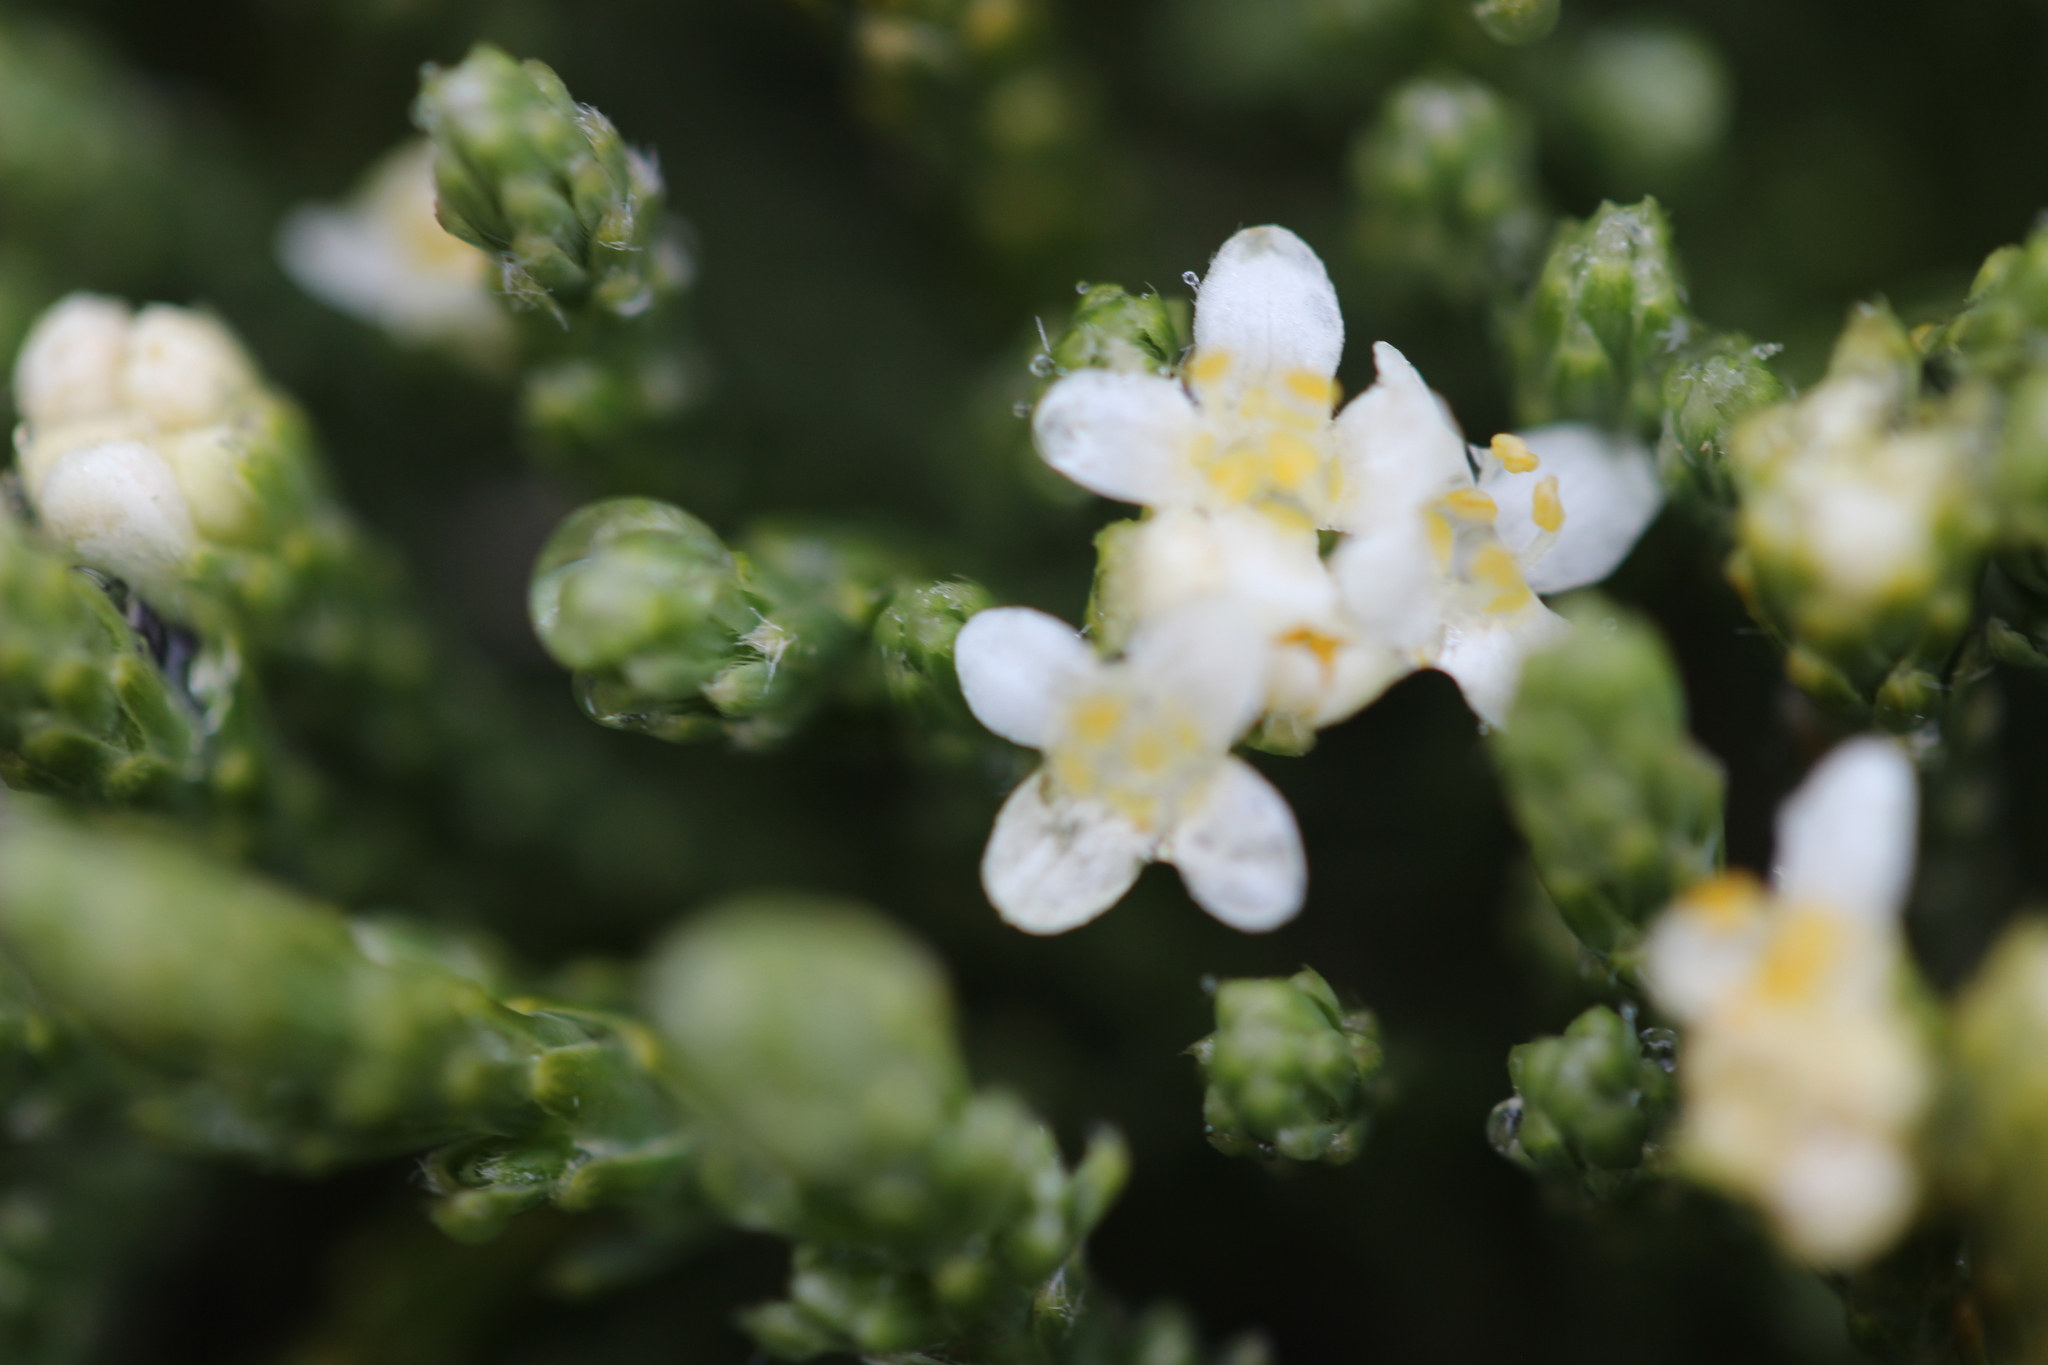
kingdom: Plantae
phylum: Tracheophyta
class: Magnoliopsida
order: Malvales
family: Thymelaeaceae
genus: Kelleria
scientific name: Kelleria dieffenbachii
